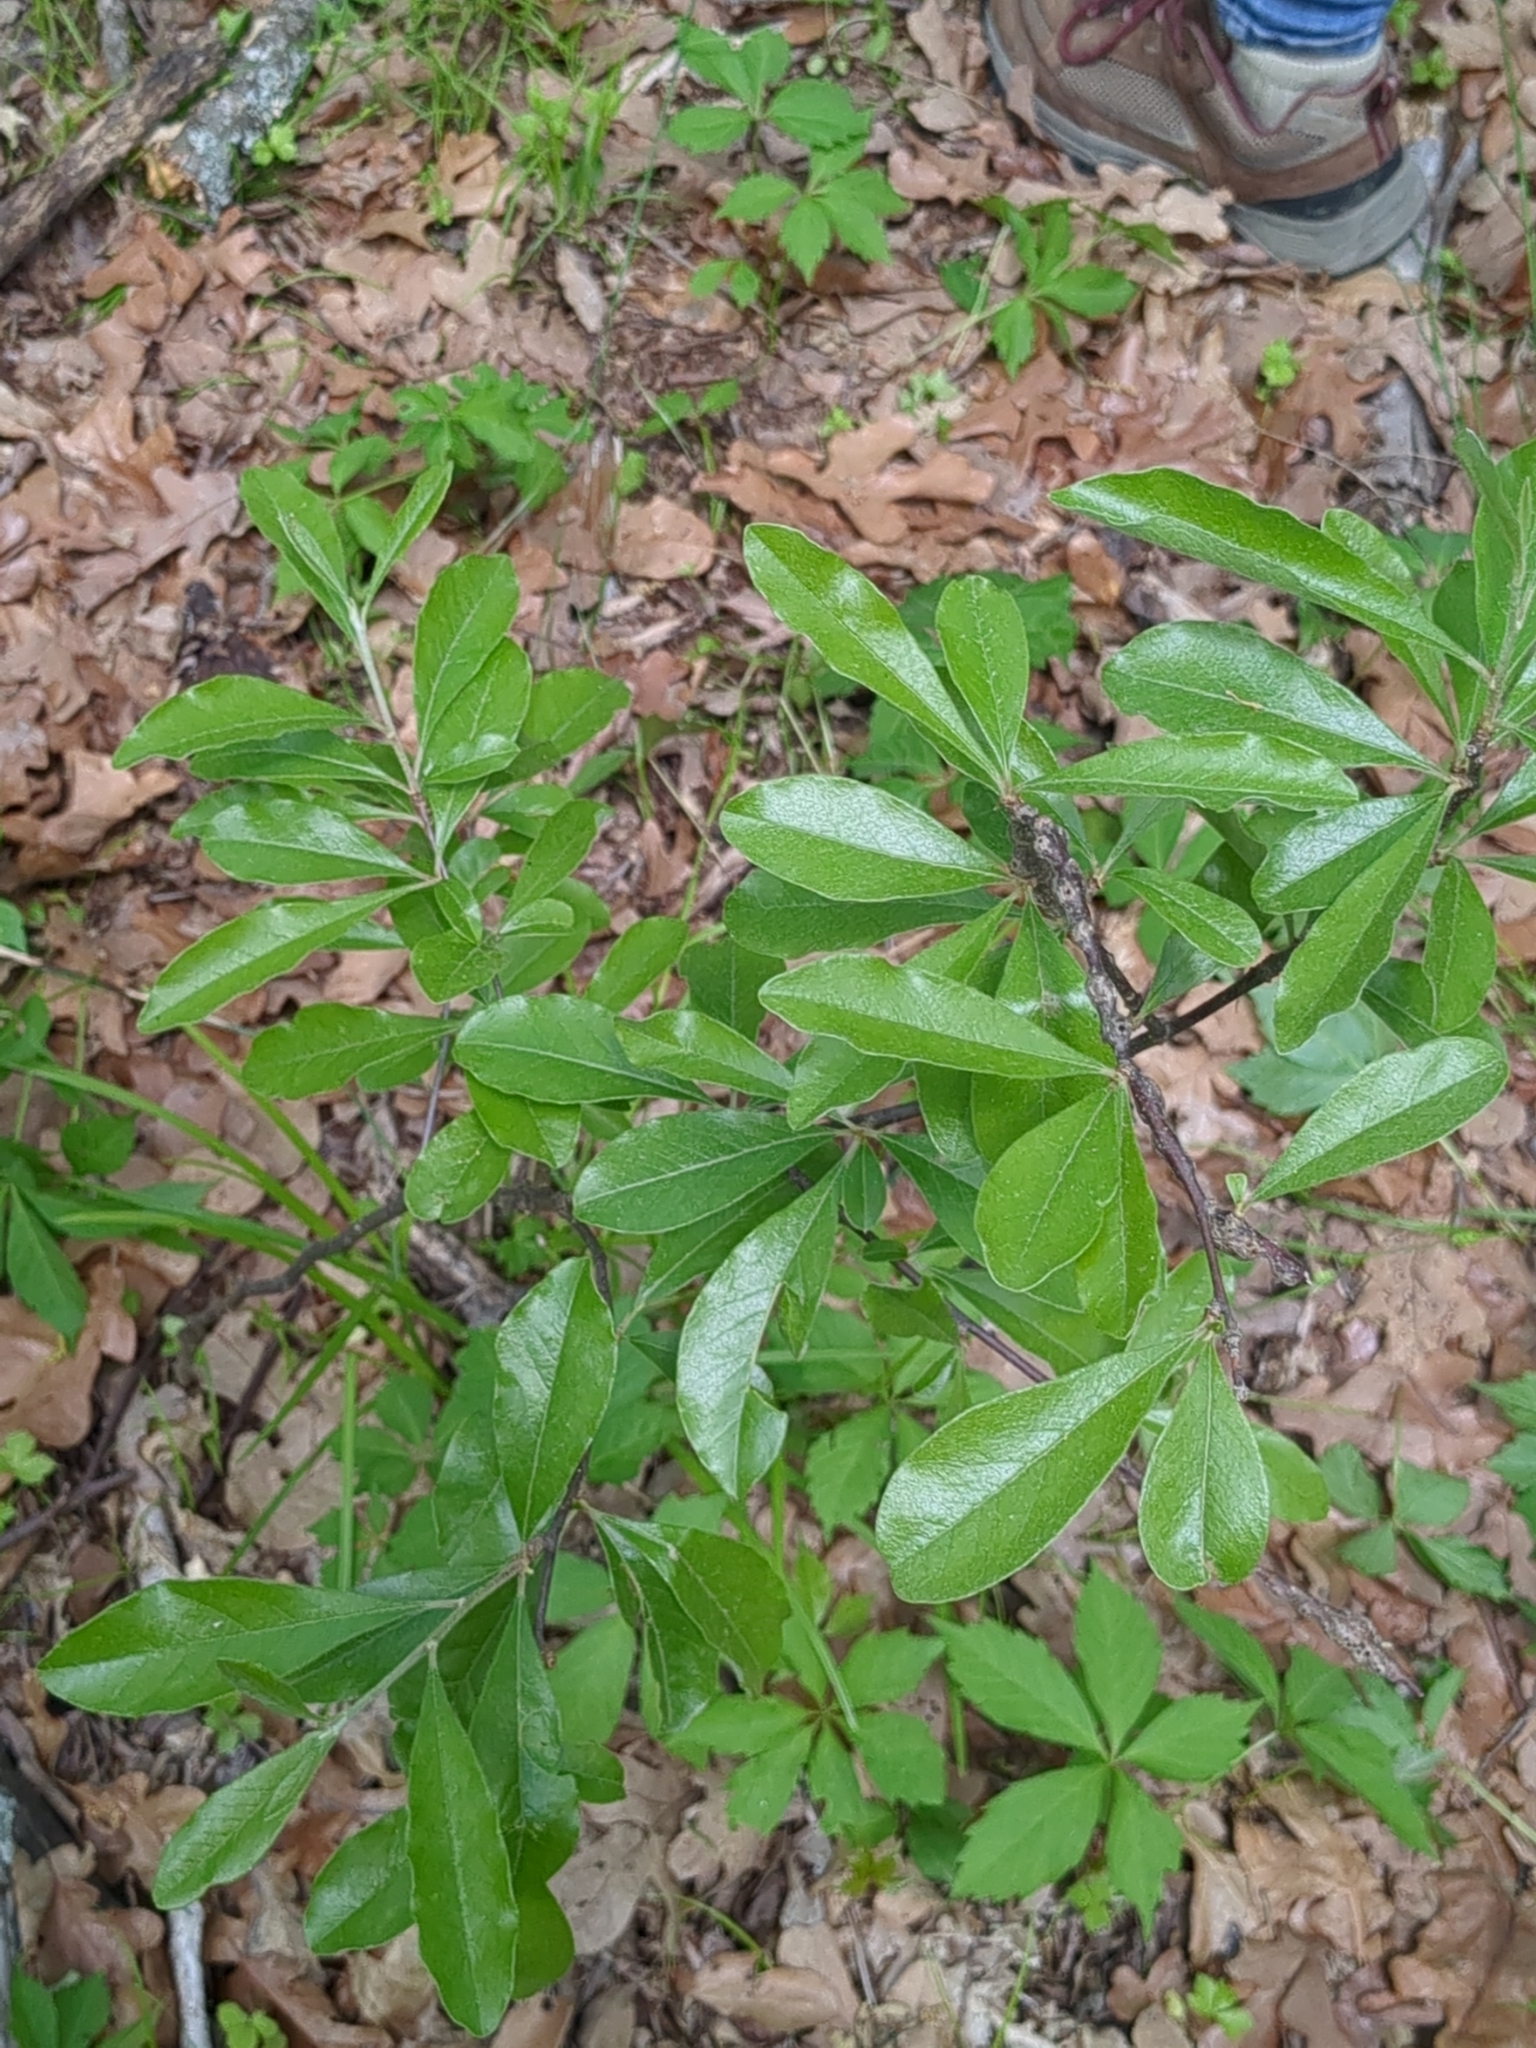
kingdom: Plantae
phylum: Tracheophyta
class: Magnoliopsida
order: Ericales
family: Sapotaceae
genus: Sideroxylon
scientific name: Sideroxylon lanuginosum
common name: Chittamwood
